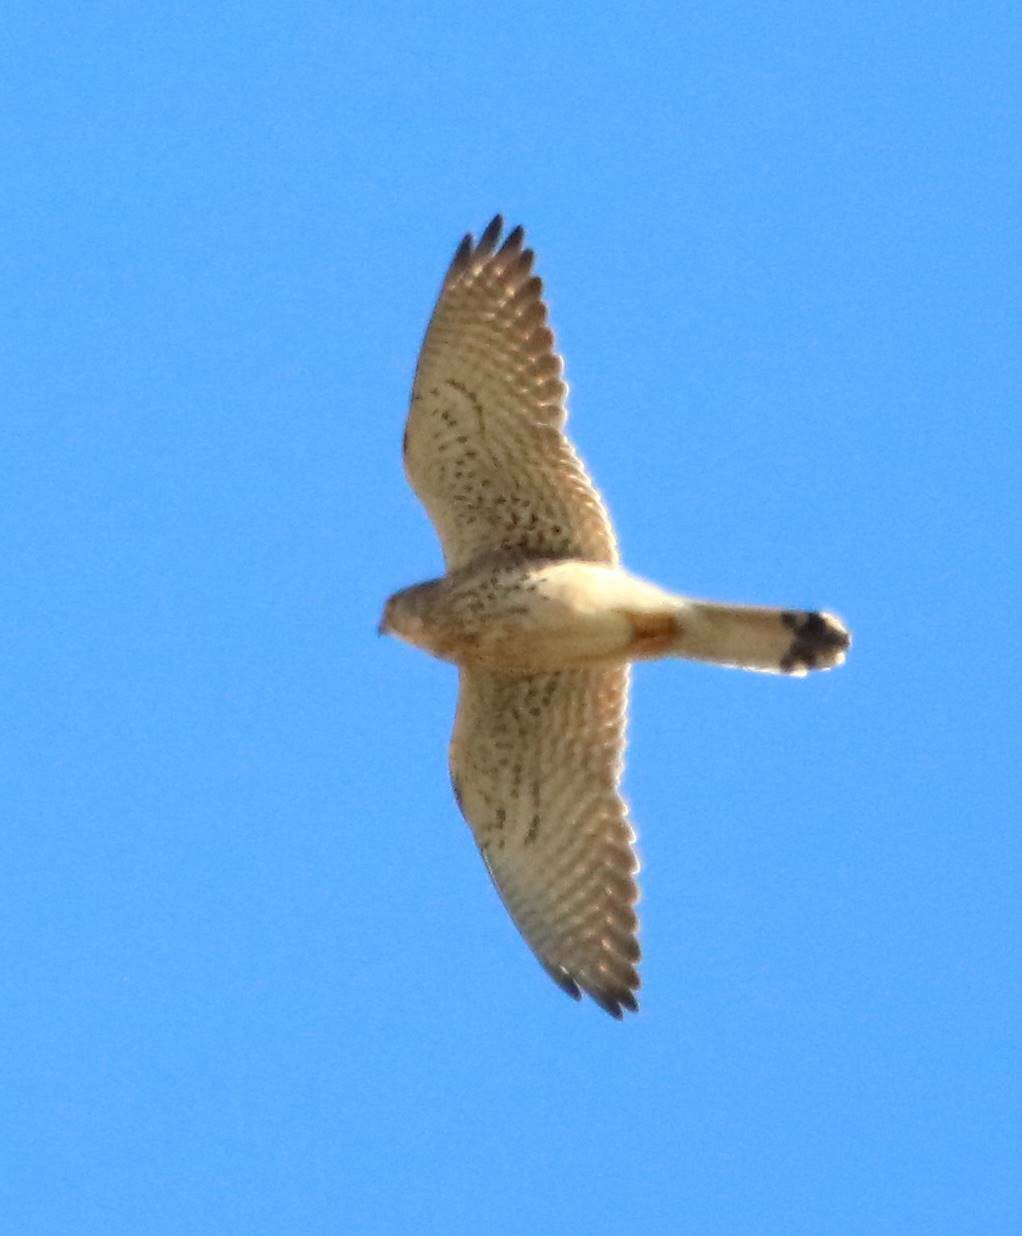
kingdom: Animalia
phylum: Chordata
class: Aves
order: Falconiformes
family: Falconidae
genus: Falco
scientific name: Falco tinnunculus
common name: Common kestrel
